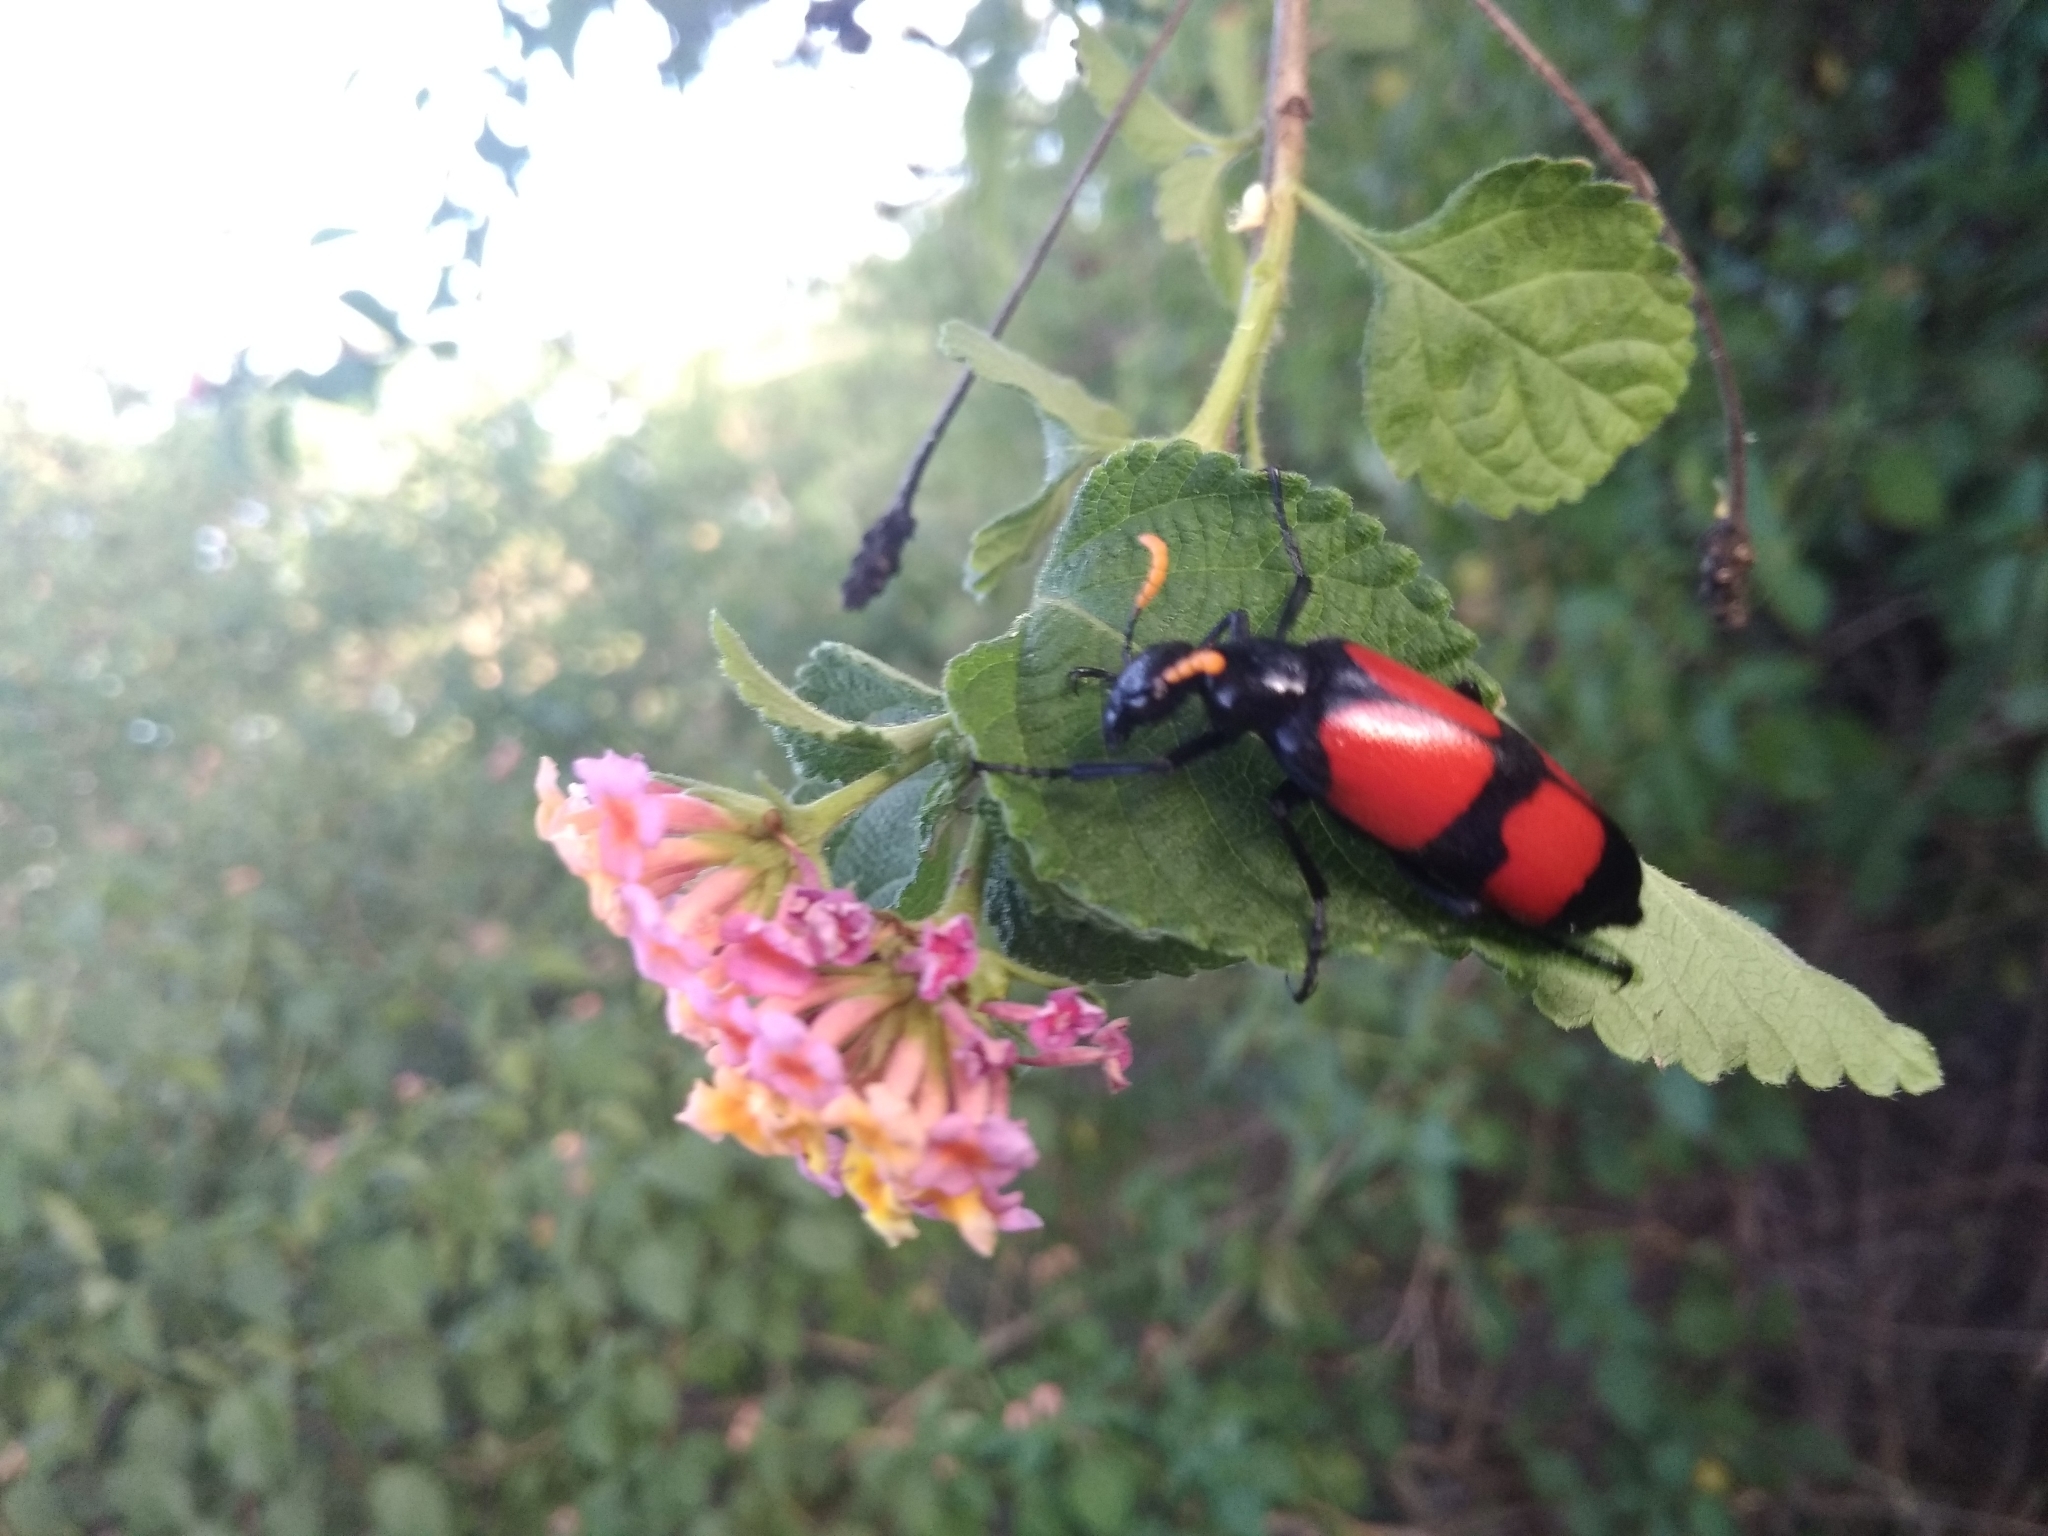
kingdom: Animalia
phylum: Arthropoda
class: Insecta
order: Coleoptera
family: Meloidae
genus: Hycleus
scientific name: Hycleus tekkensis
